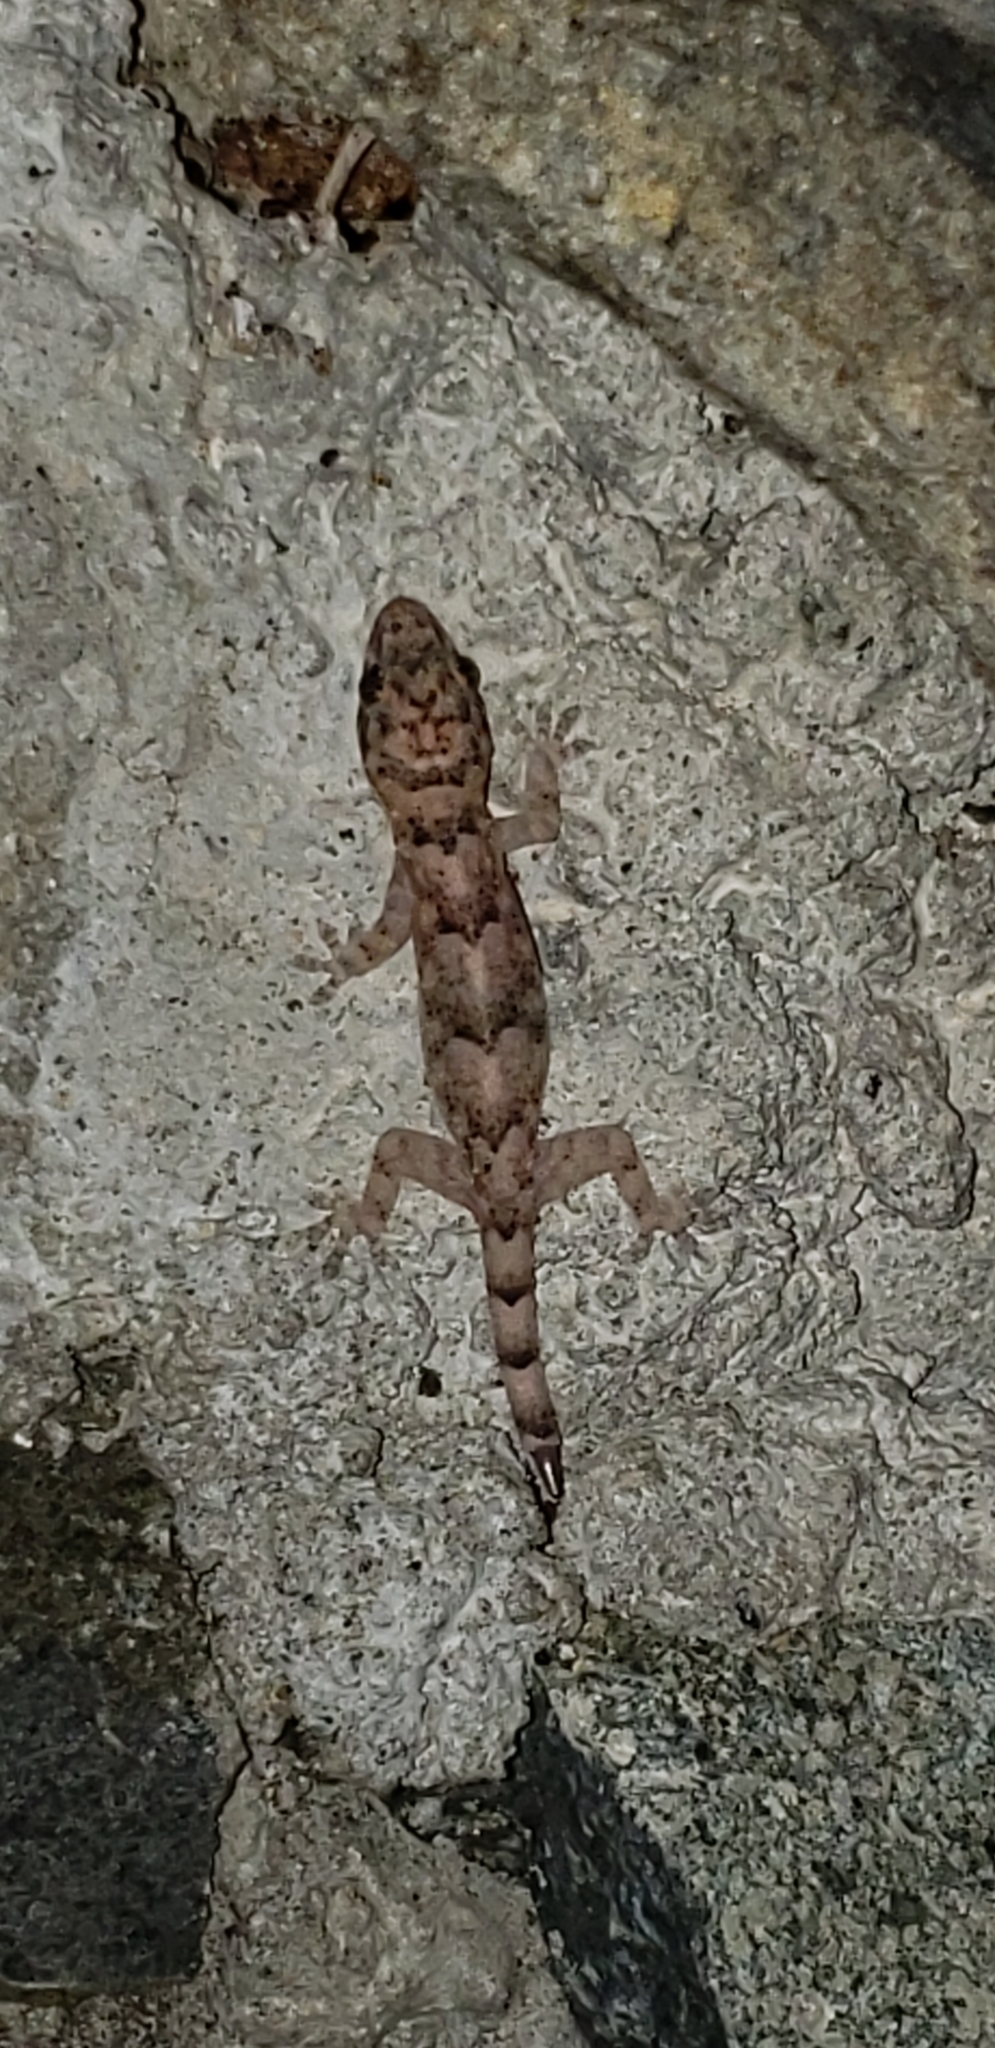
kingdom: Animalia
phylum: Chordata
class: Squamata
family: Gekkonidae
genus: Hemidactylus
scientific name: Hemidactylus mabouia
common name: House gecko
